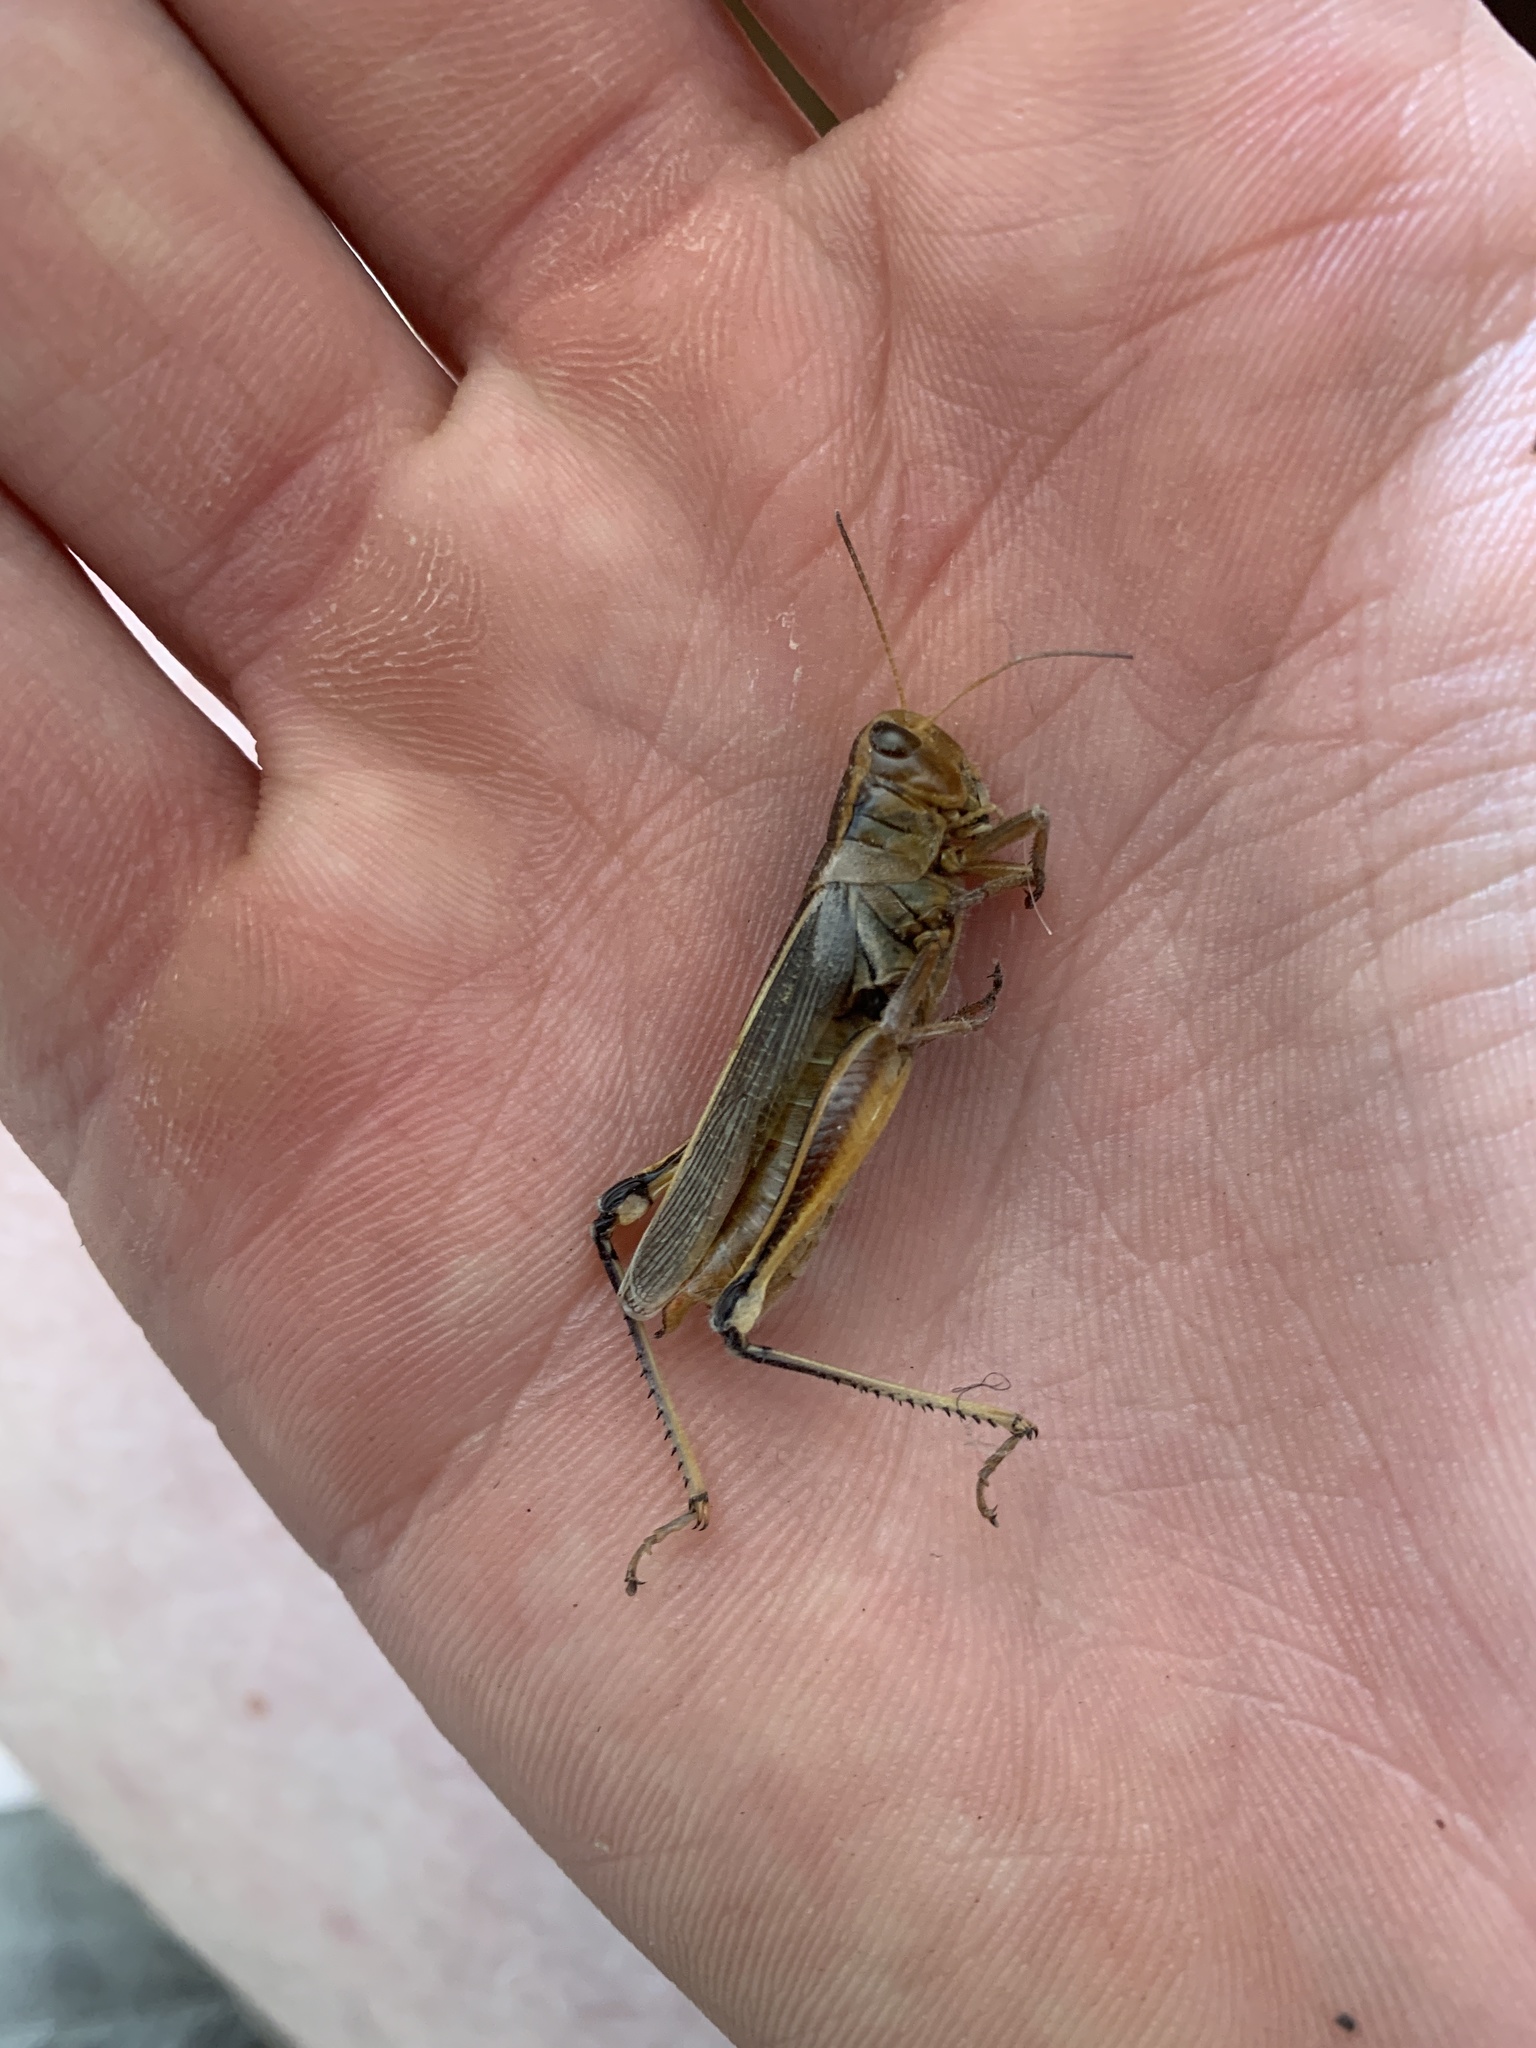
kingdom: Animalia
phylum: Arthropoda
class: Insecta
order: Orthoptera
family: Acrididae
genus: Melanoplus
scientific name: Melanoplus bivittatus
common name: Two-striped grasshopper
